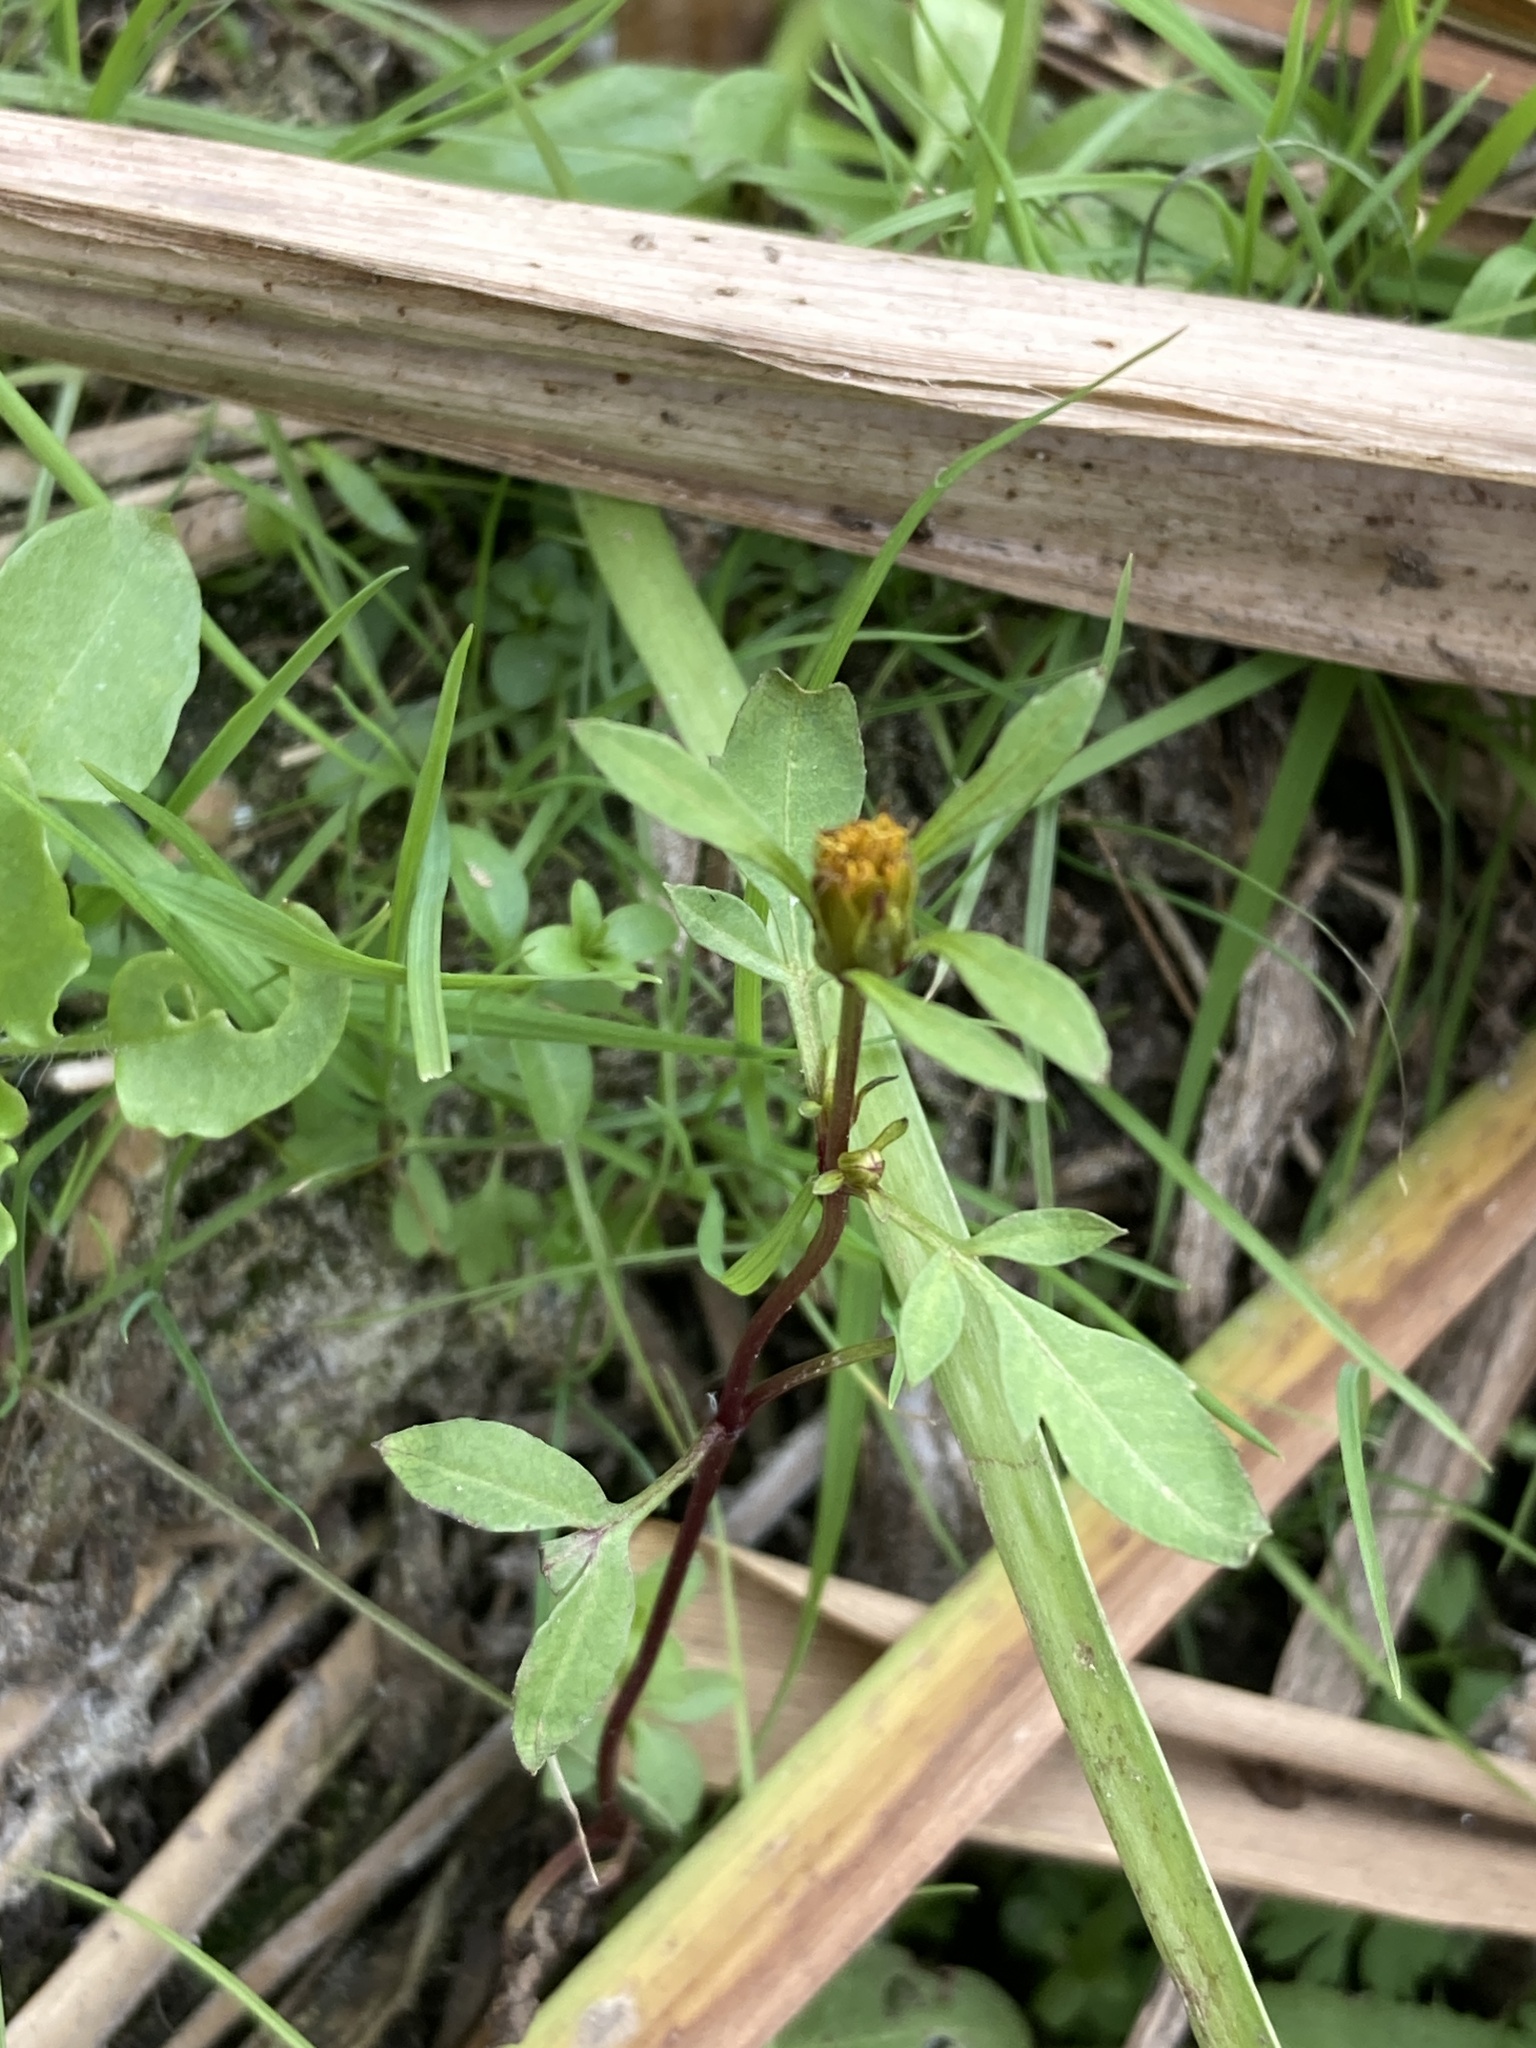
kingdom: Plantae
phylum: Tracheophyta
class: Magnoliopsida
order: Asterales
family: Asteraceae
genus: Bidens
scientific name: Bidens frondosa
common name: Beggarticks
